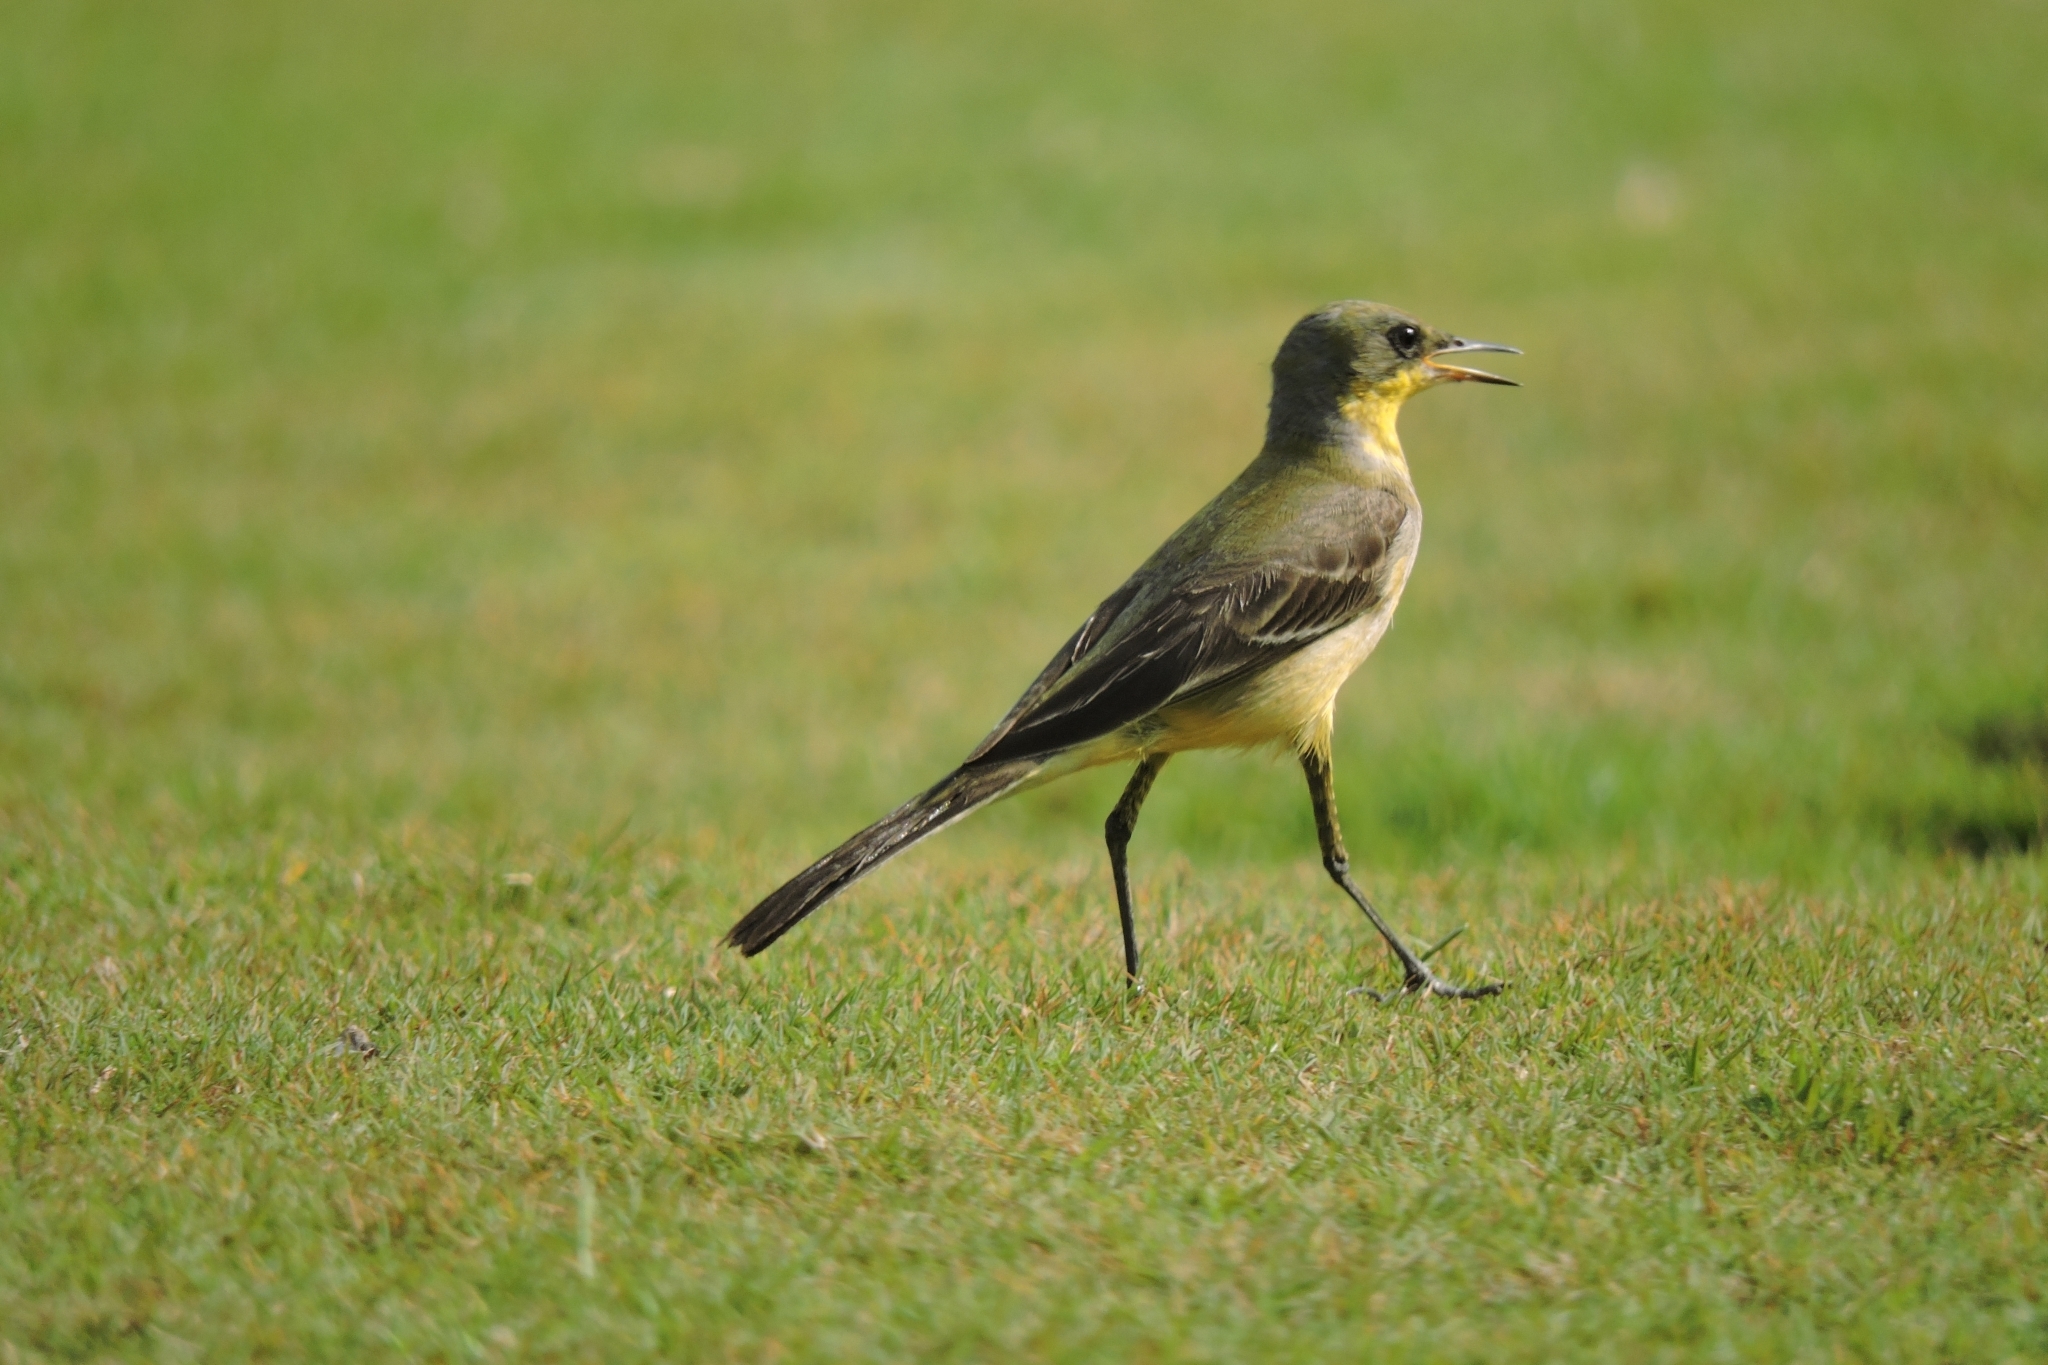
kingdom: Animalia
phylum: Chordata
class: Aves
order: Passeriformes
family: Motacillidae
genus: Motacilla
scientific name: Motacilla flava
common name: Western yellow wagtail
